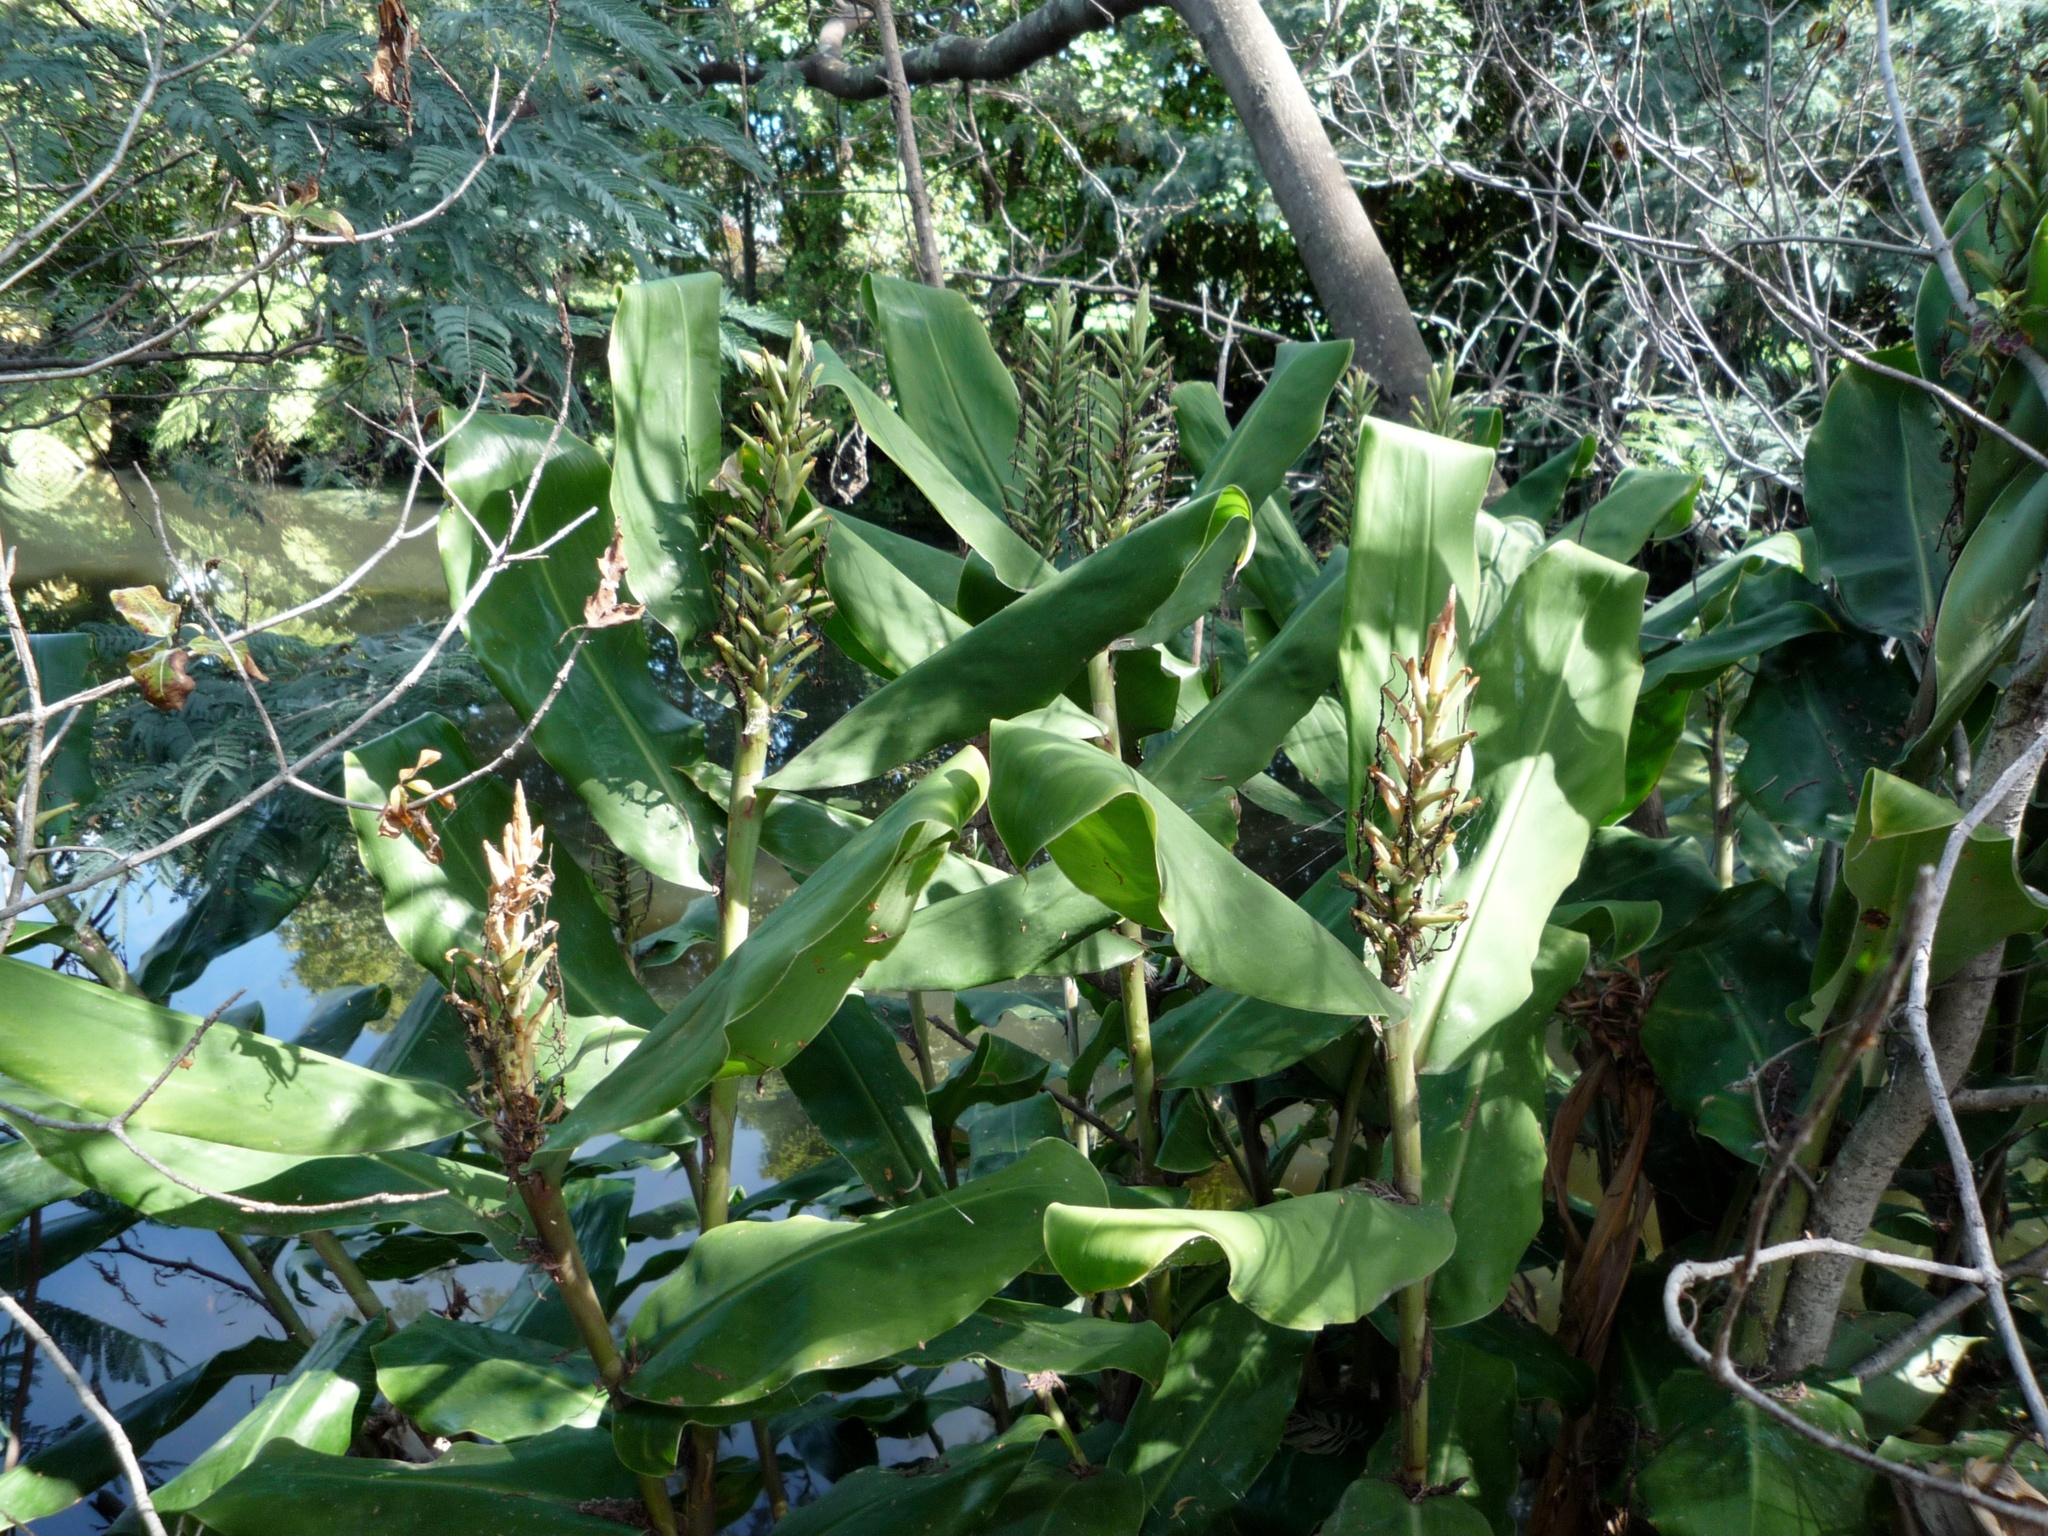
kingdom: Plantae
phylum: Tracheophyta
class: Liliopsida
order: Zingiberales
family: Zingiberaceae
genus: Hedychium
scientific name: Hedychium gardnerianum
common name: Himalayan ginger
